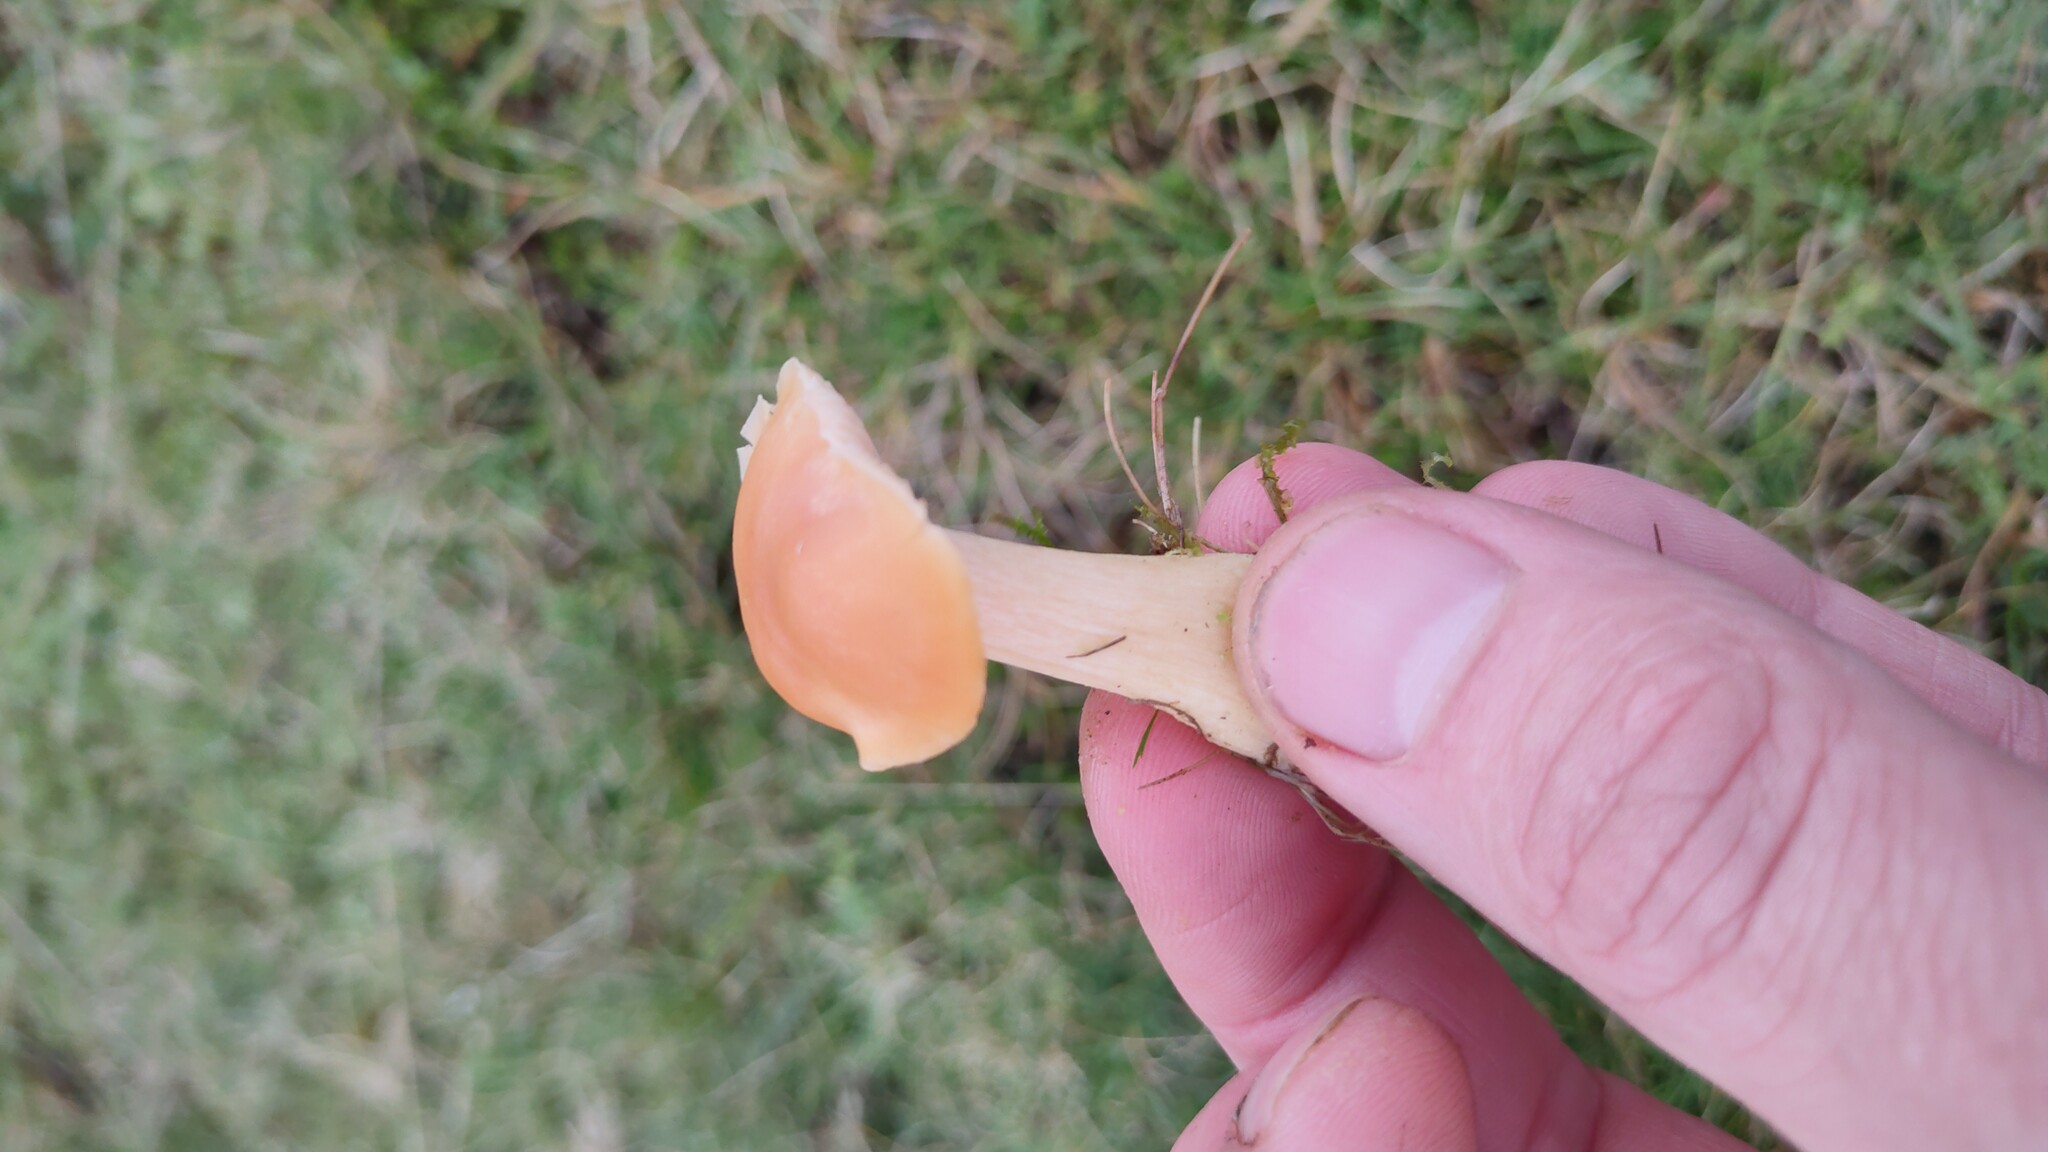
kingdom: Fungi
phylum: Basidiomycota
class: Agaricomycetes
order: Agaricales
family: Hygrophoraceae
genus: Cuphophyllus
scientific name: Cuphophyllus pratensis
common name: Meadow waxcap
